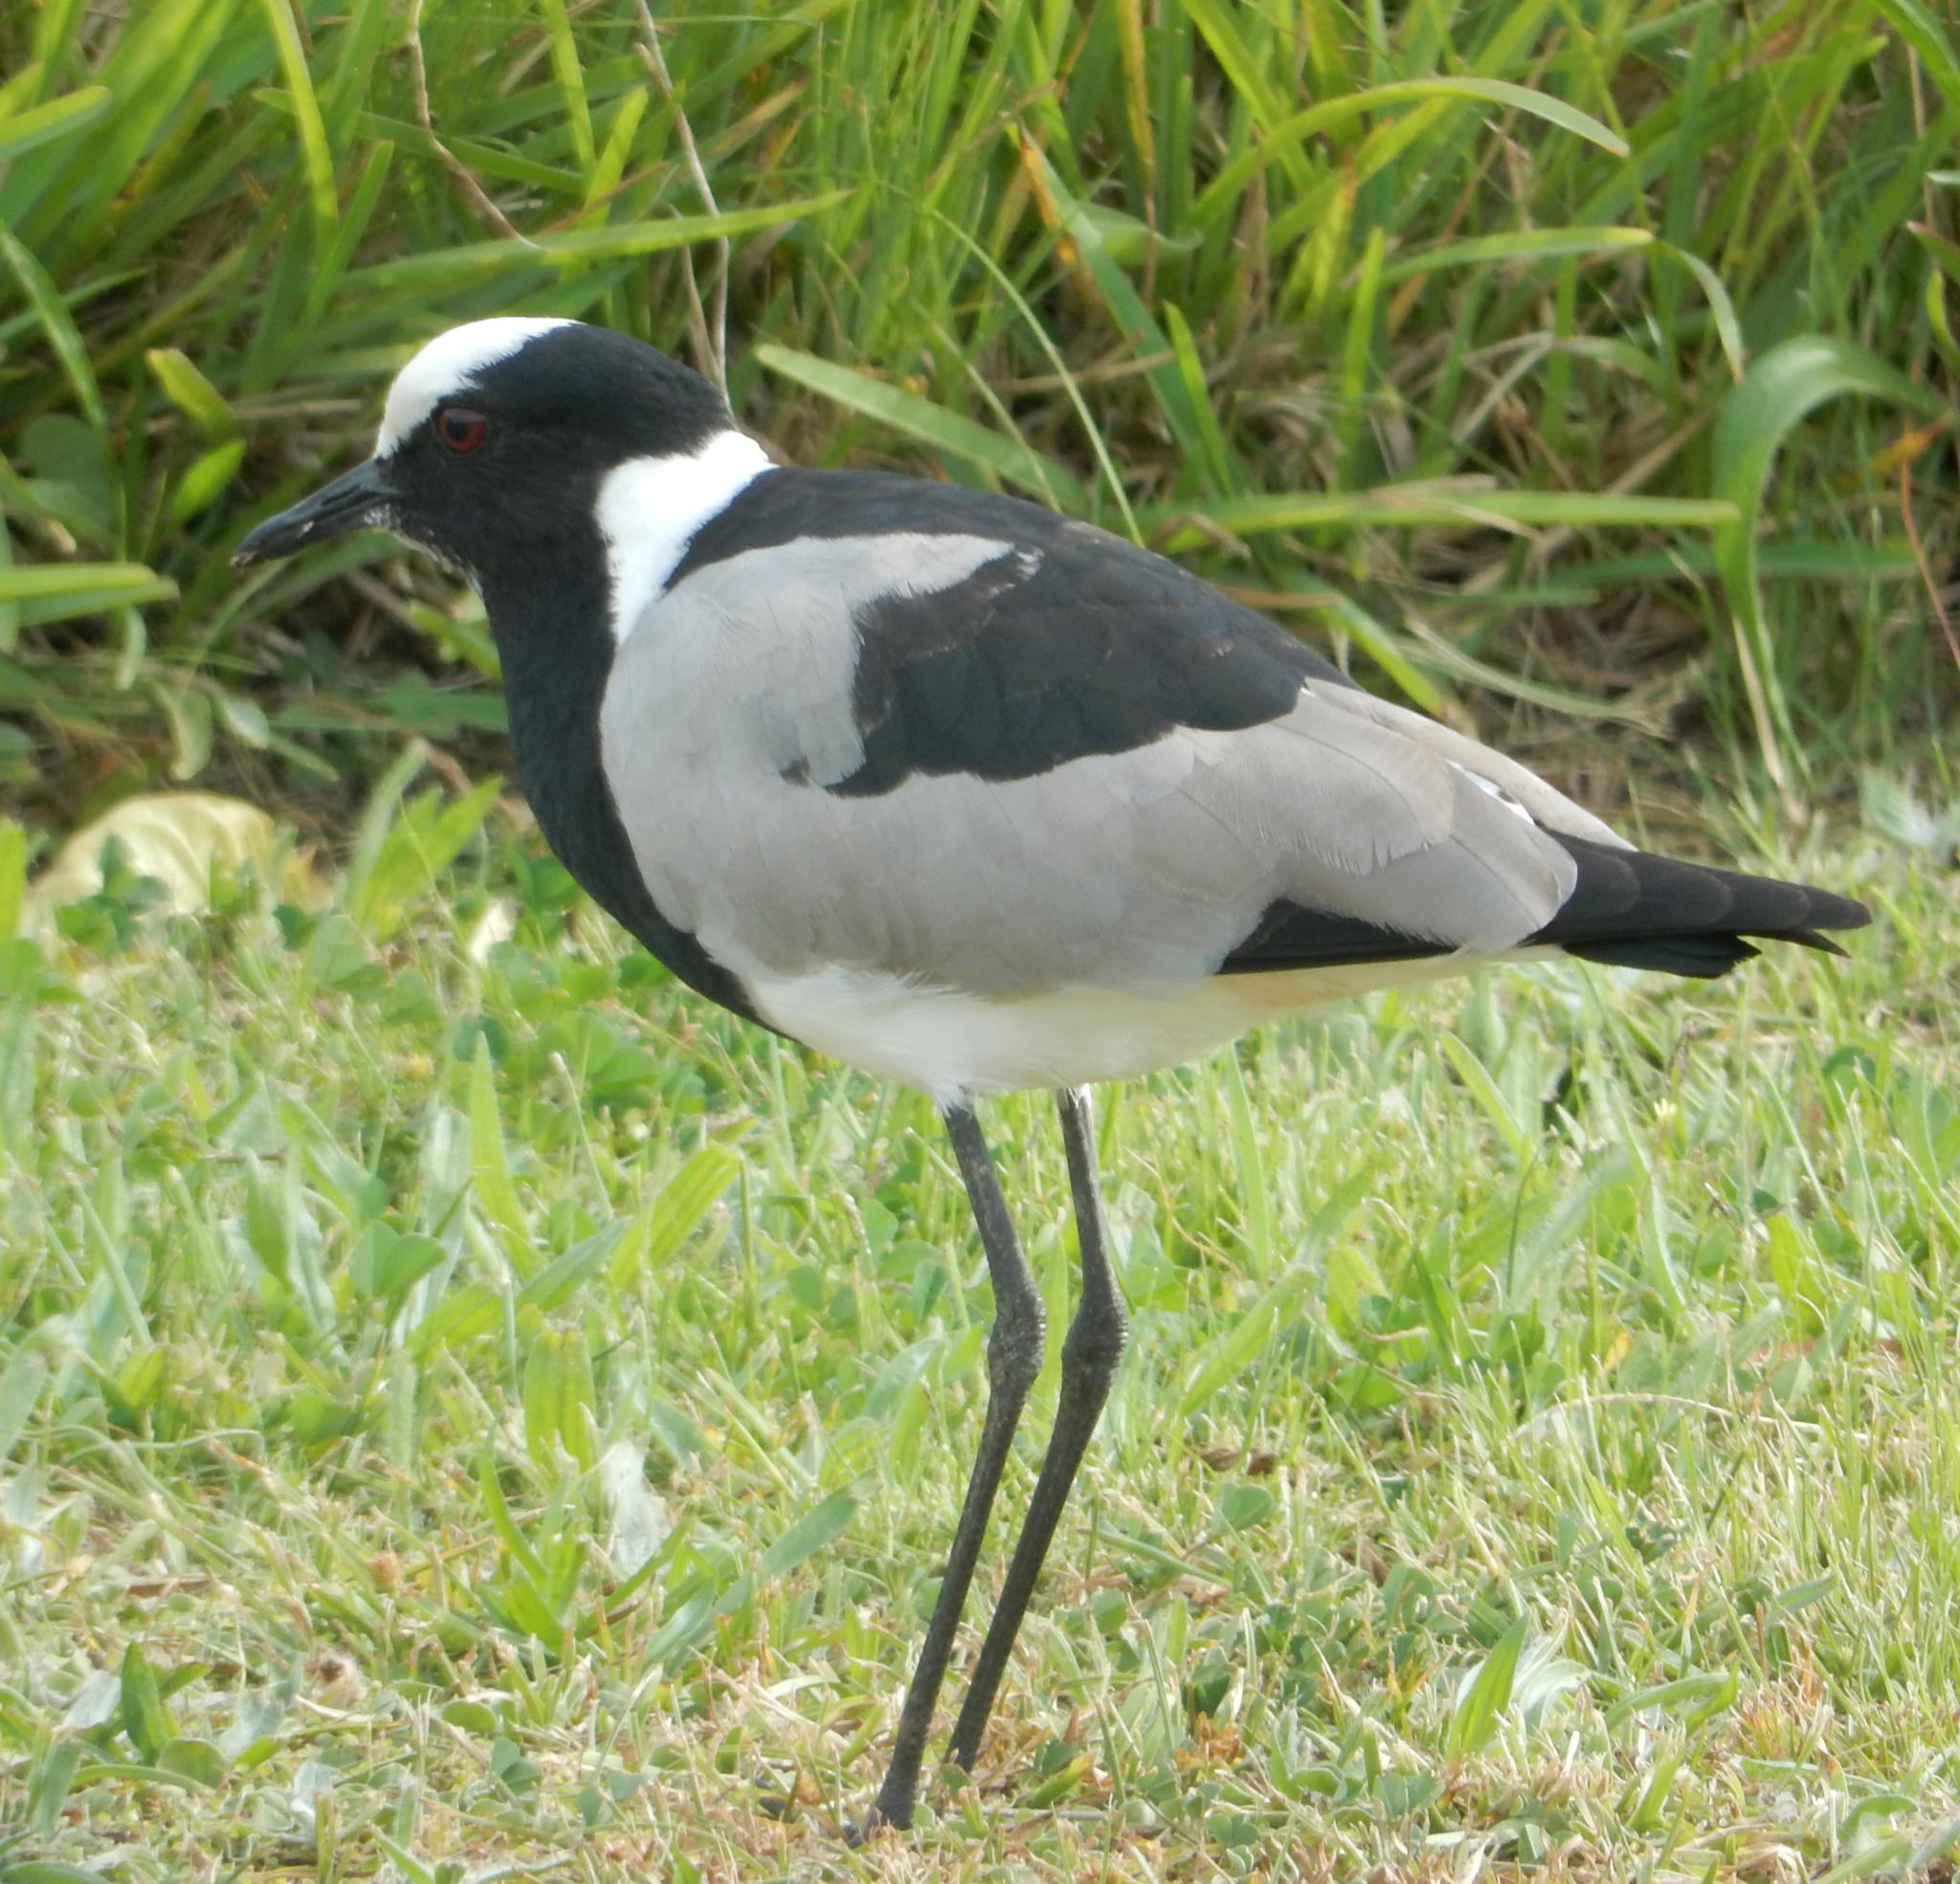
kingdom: Animalia
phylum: Chordata
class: Aves
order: Charadriiformes
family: Charadriidae
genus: Vanellus
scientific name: Vanellus armatus
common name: Blacksmith lapwing
